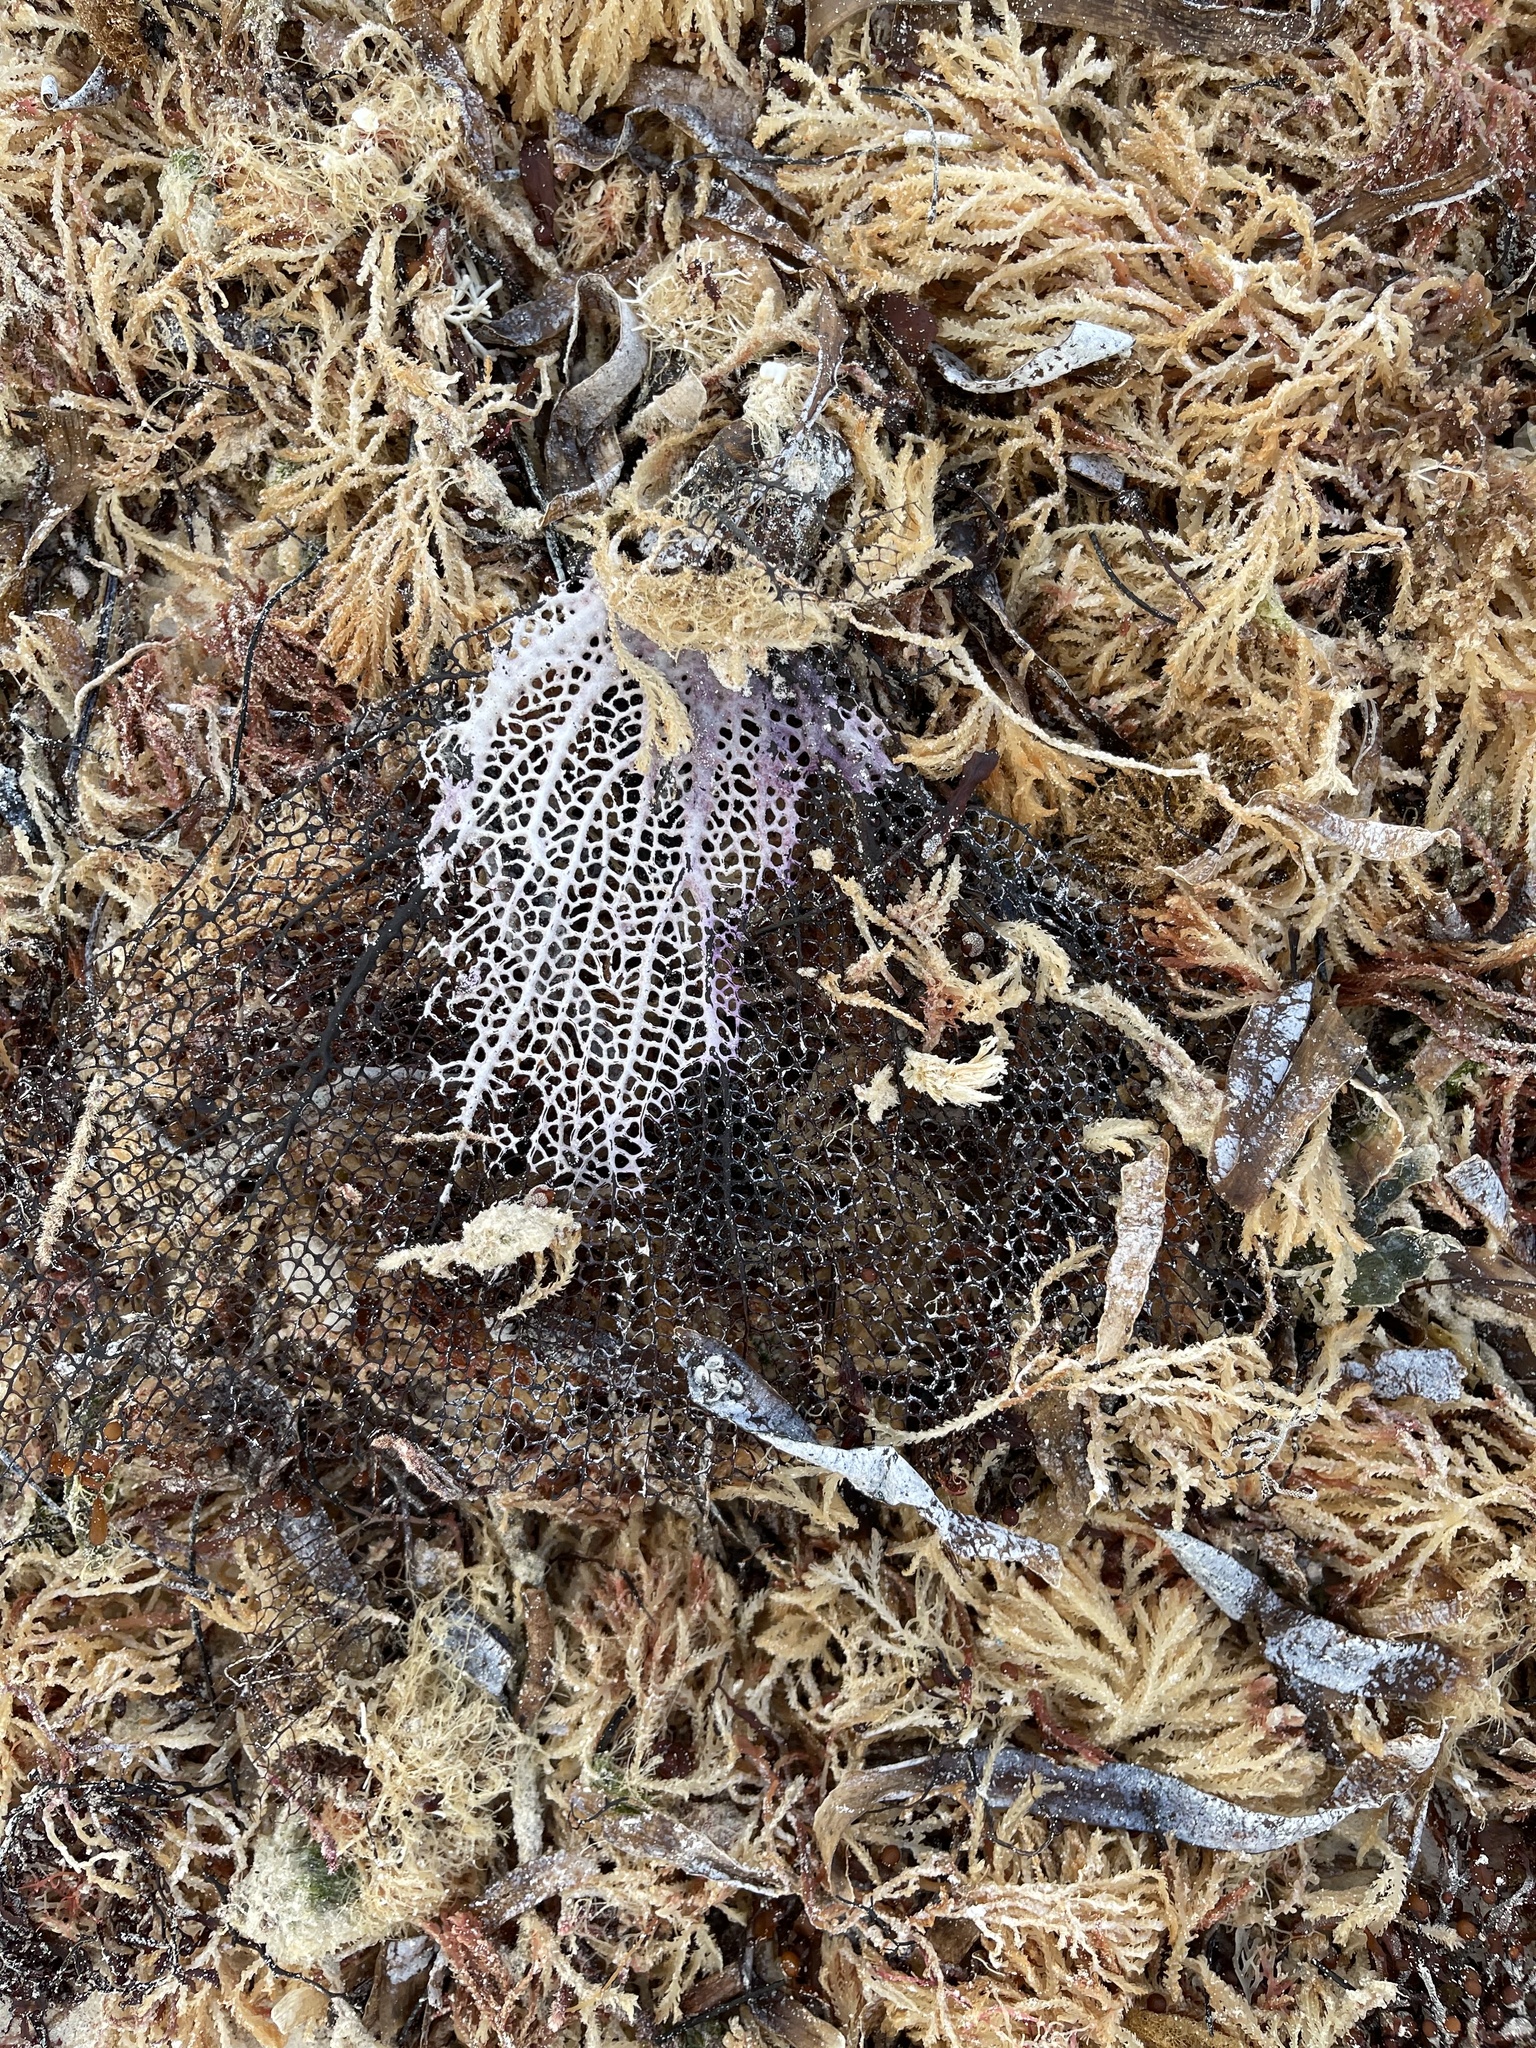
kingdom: Animalia
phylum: Cnidaria
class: Anthozoa
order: Malacalcyonacea
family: Gorgoniidae
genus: Gorgonia
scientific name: Gorgonia ventalina
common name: Common sea fan
